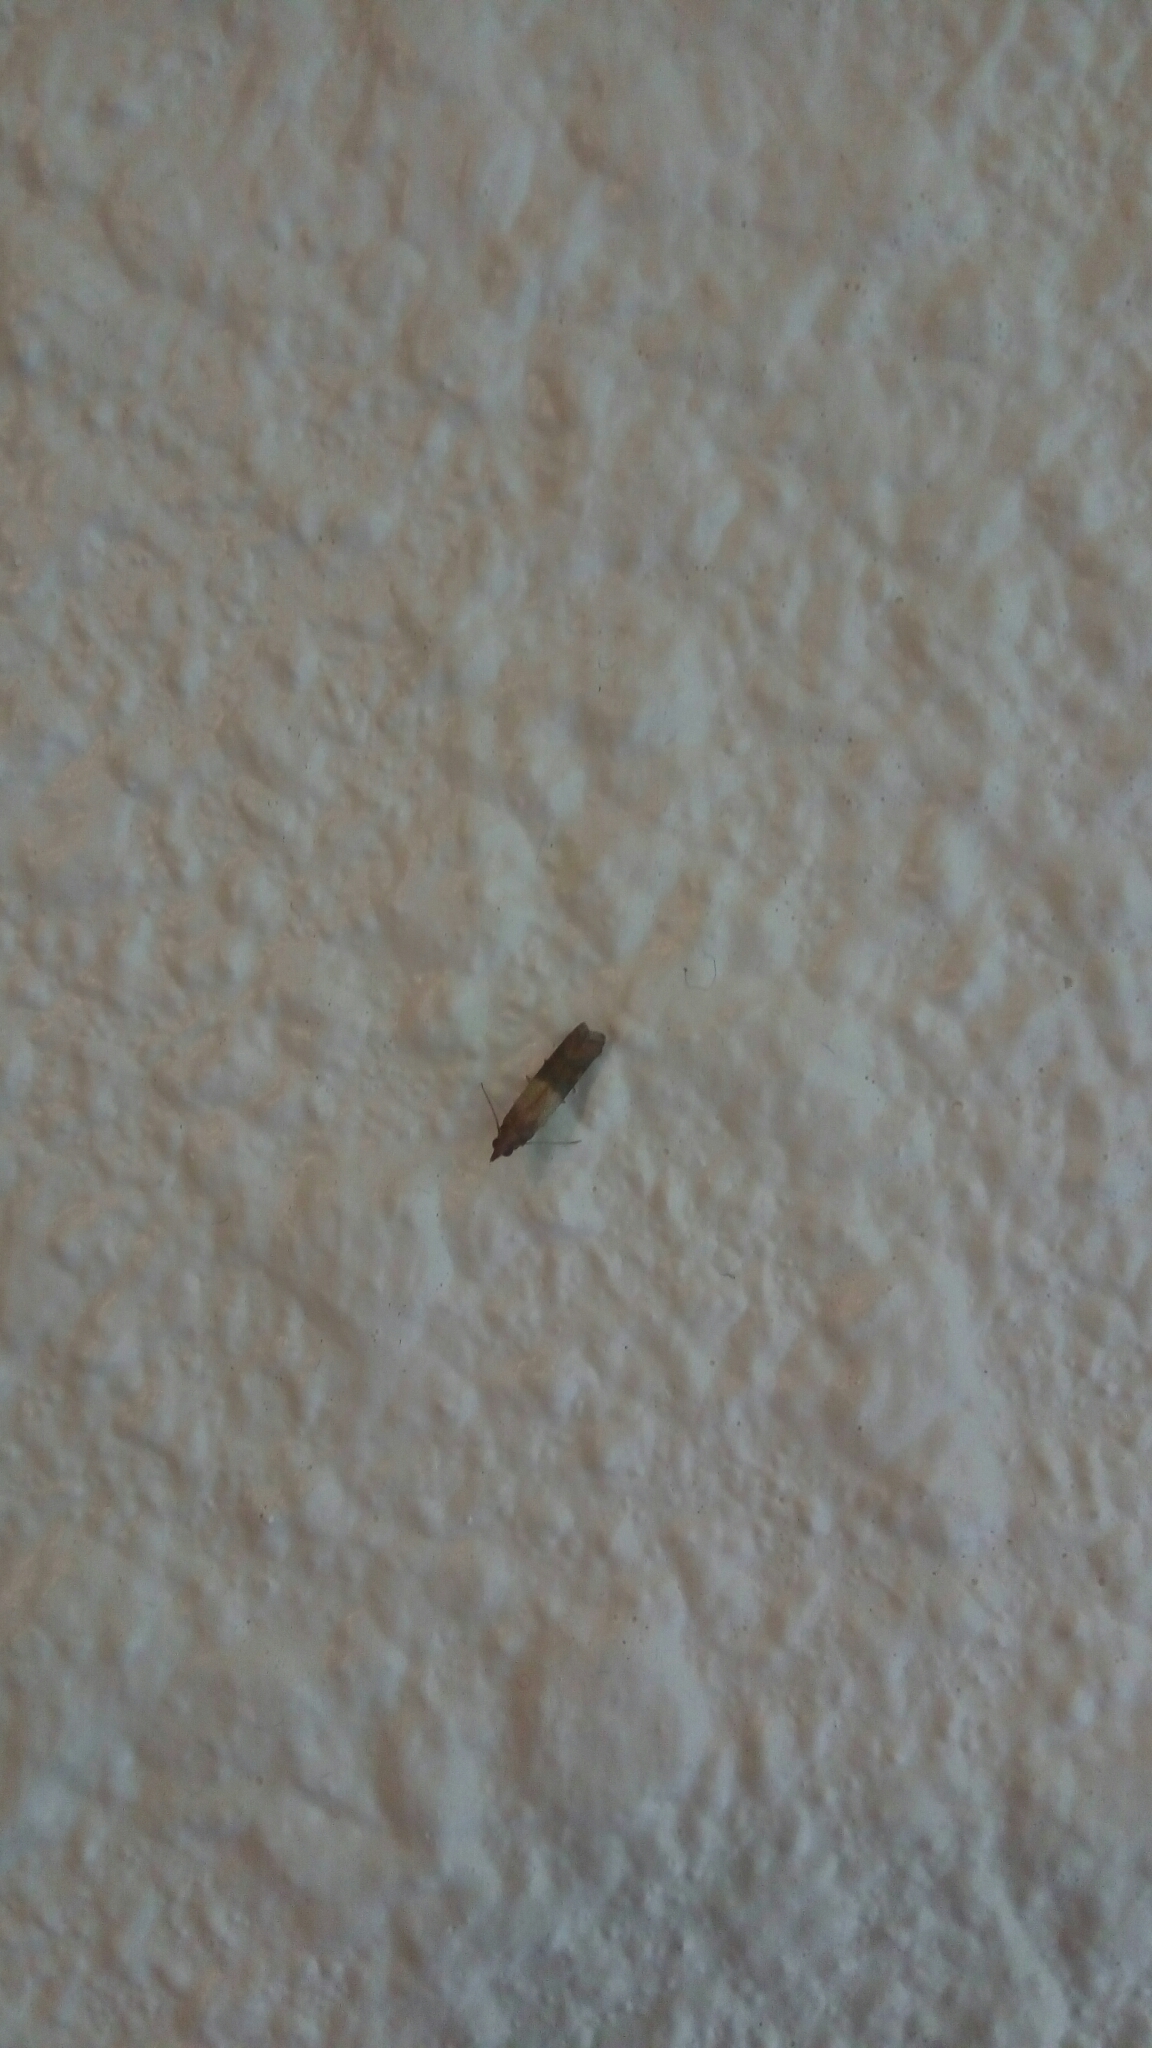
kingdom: Animalia
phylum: Arthropoda
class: Insecta
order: Lepidoptera
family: Pyralidae
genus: Plodia
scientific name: Plodia interpunctella
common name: Indian meal moth
